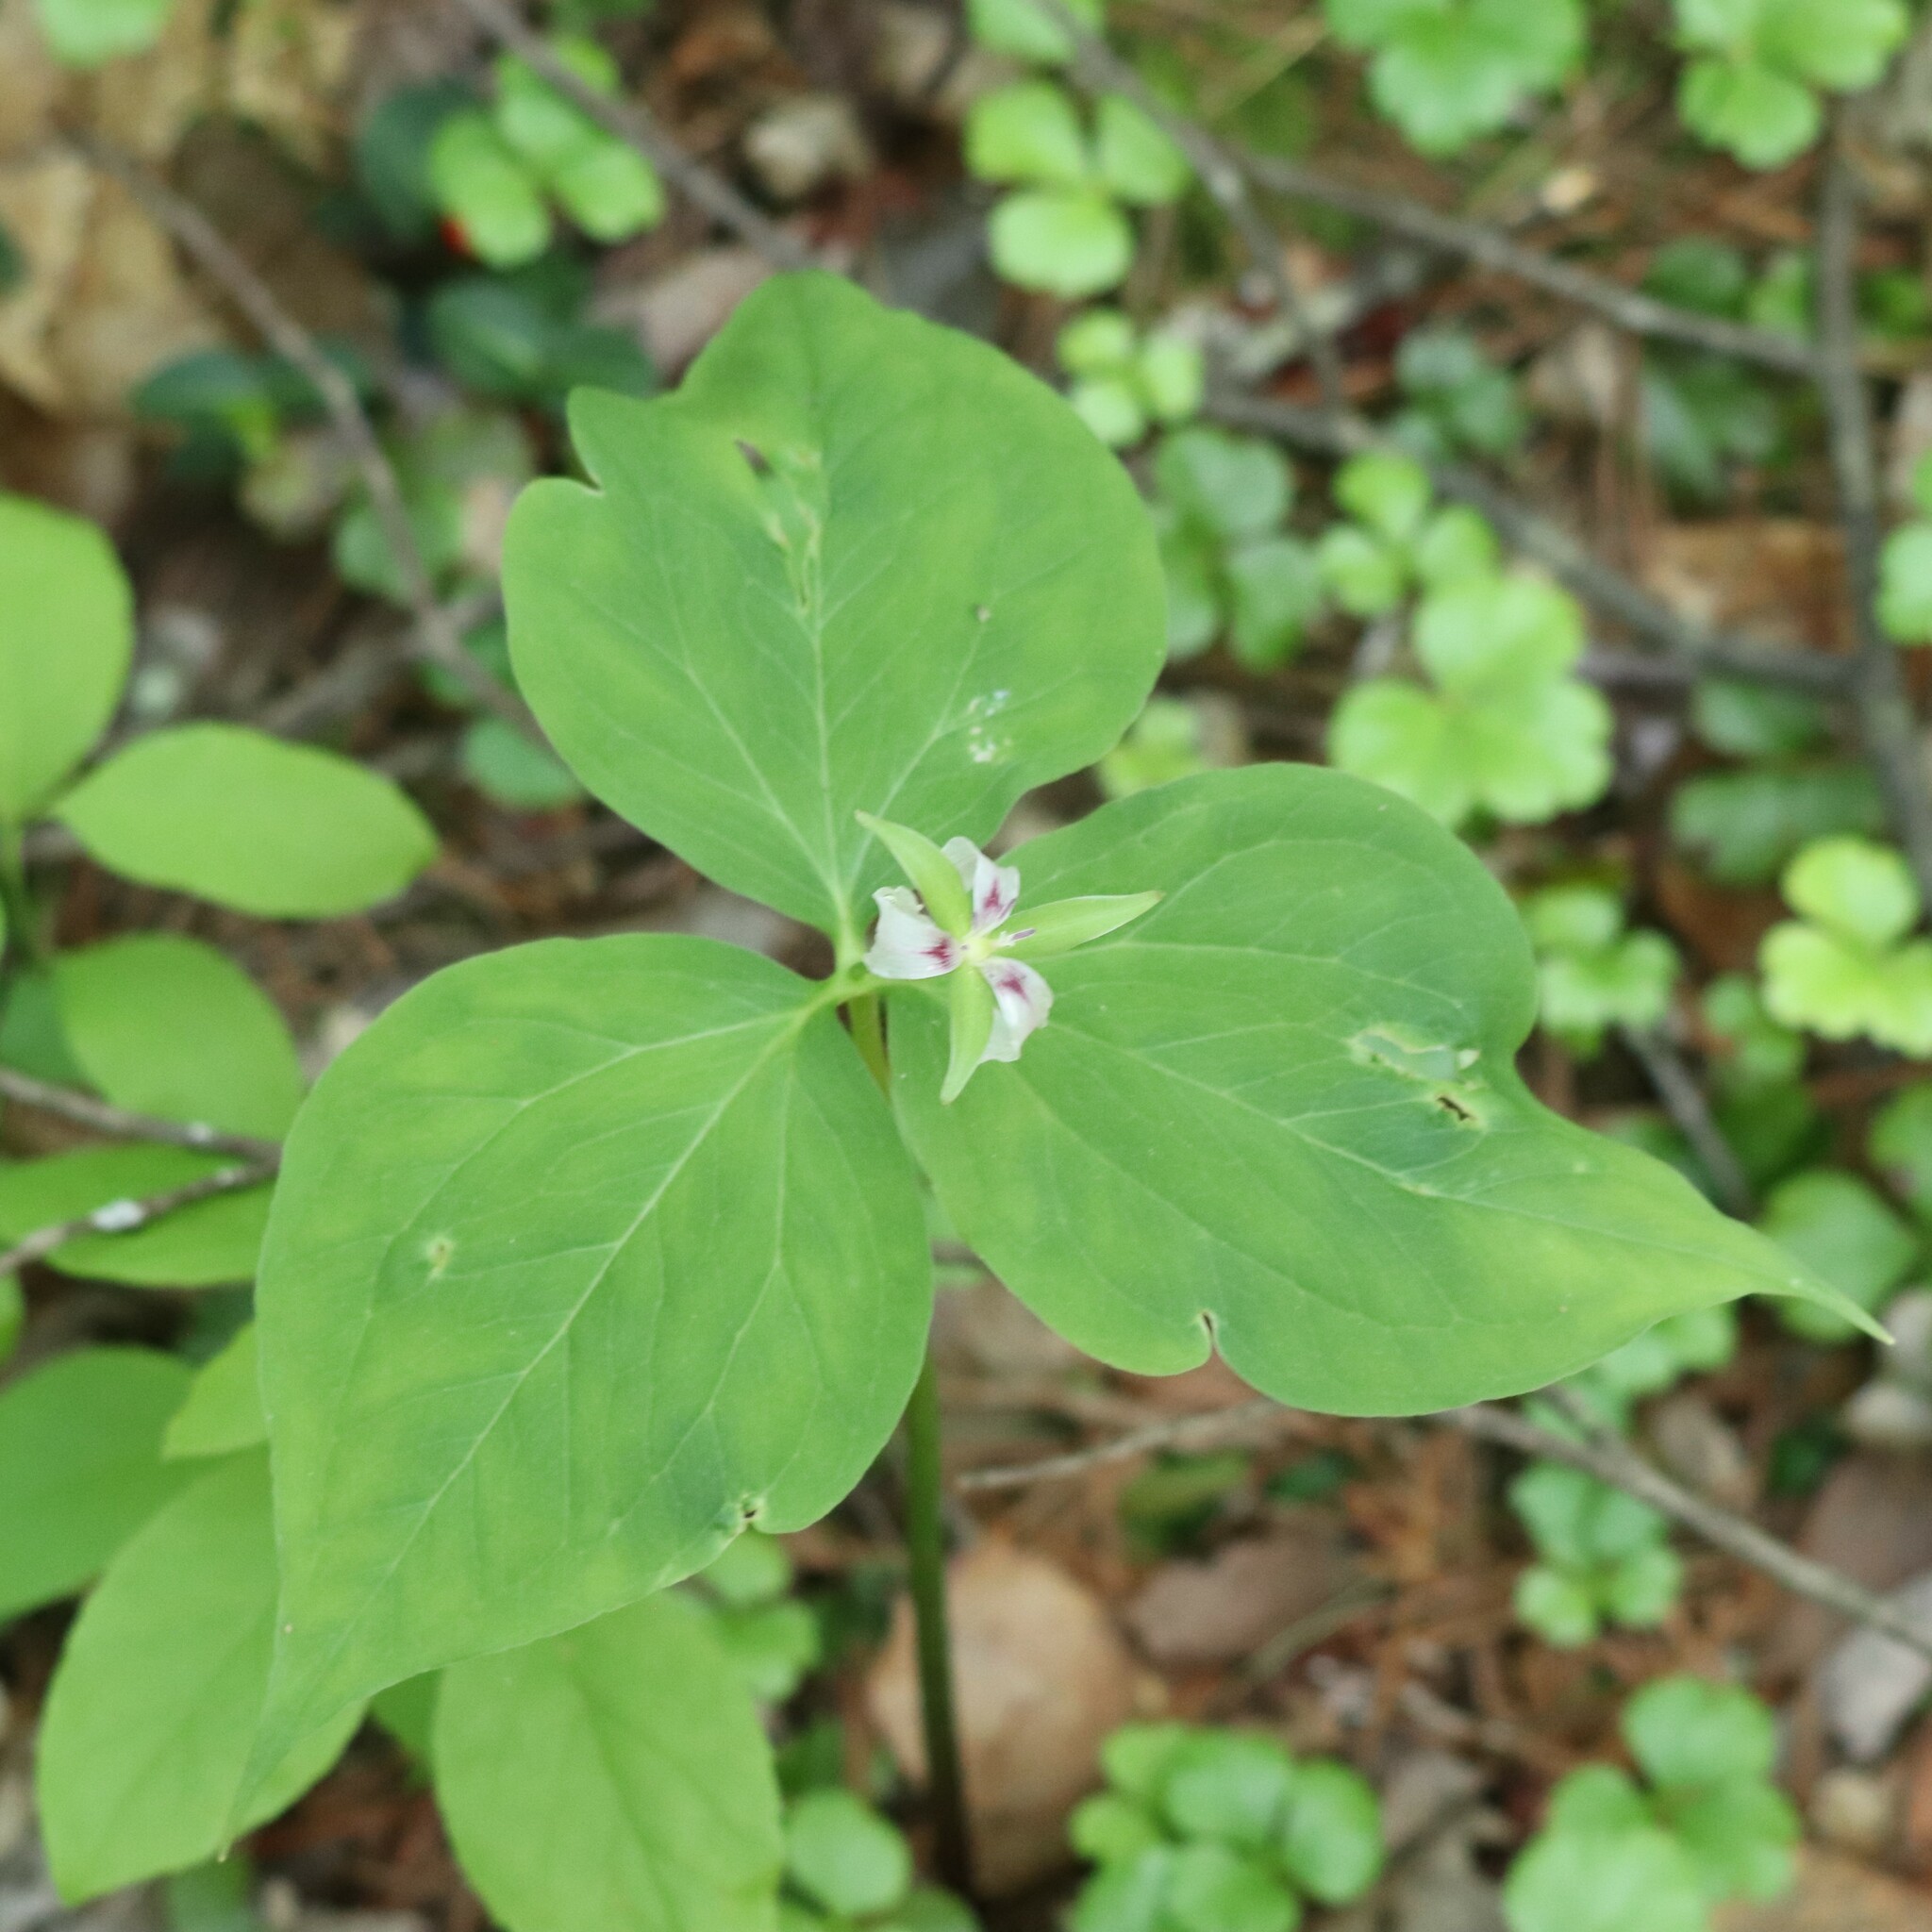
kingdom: Plantae
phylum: Tracheophyta
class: Liliopsida
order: Liliales
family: Melanthiaceae
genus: Trillium
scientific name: Trillium undulatum
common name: Paint trillium
